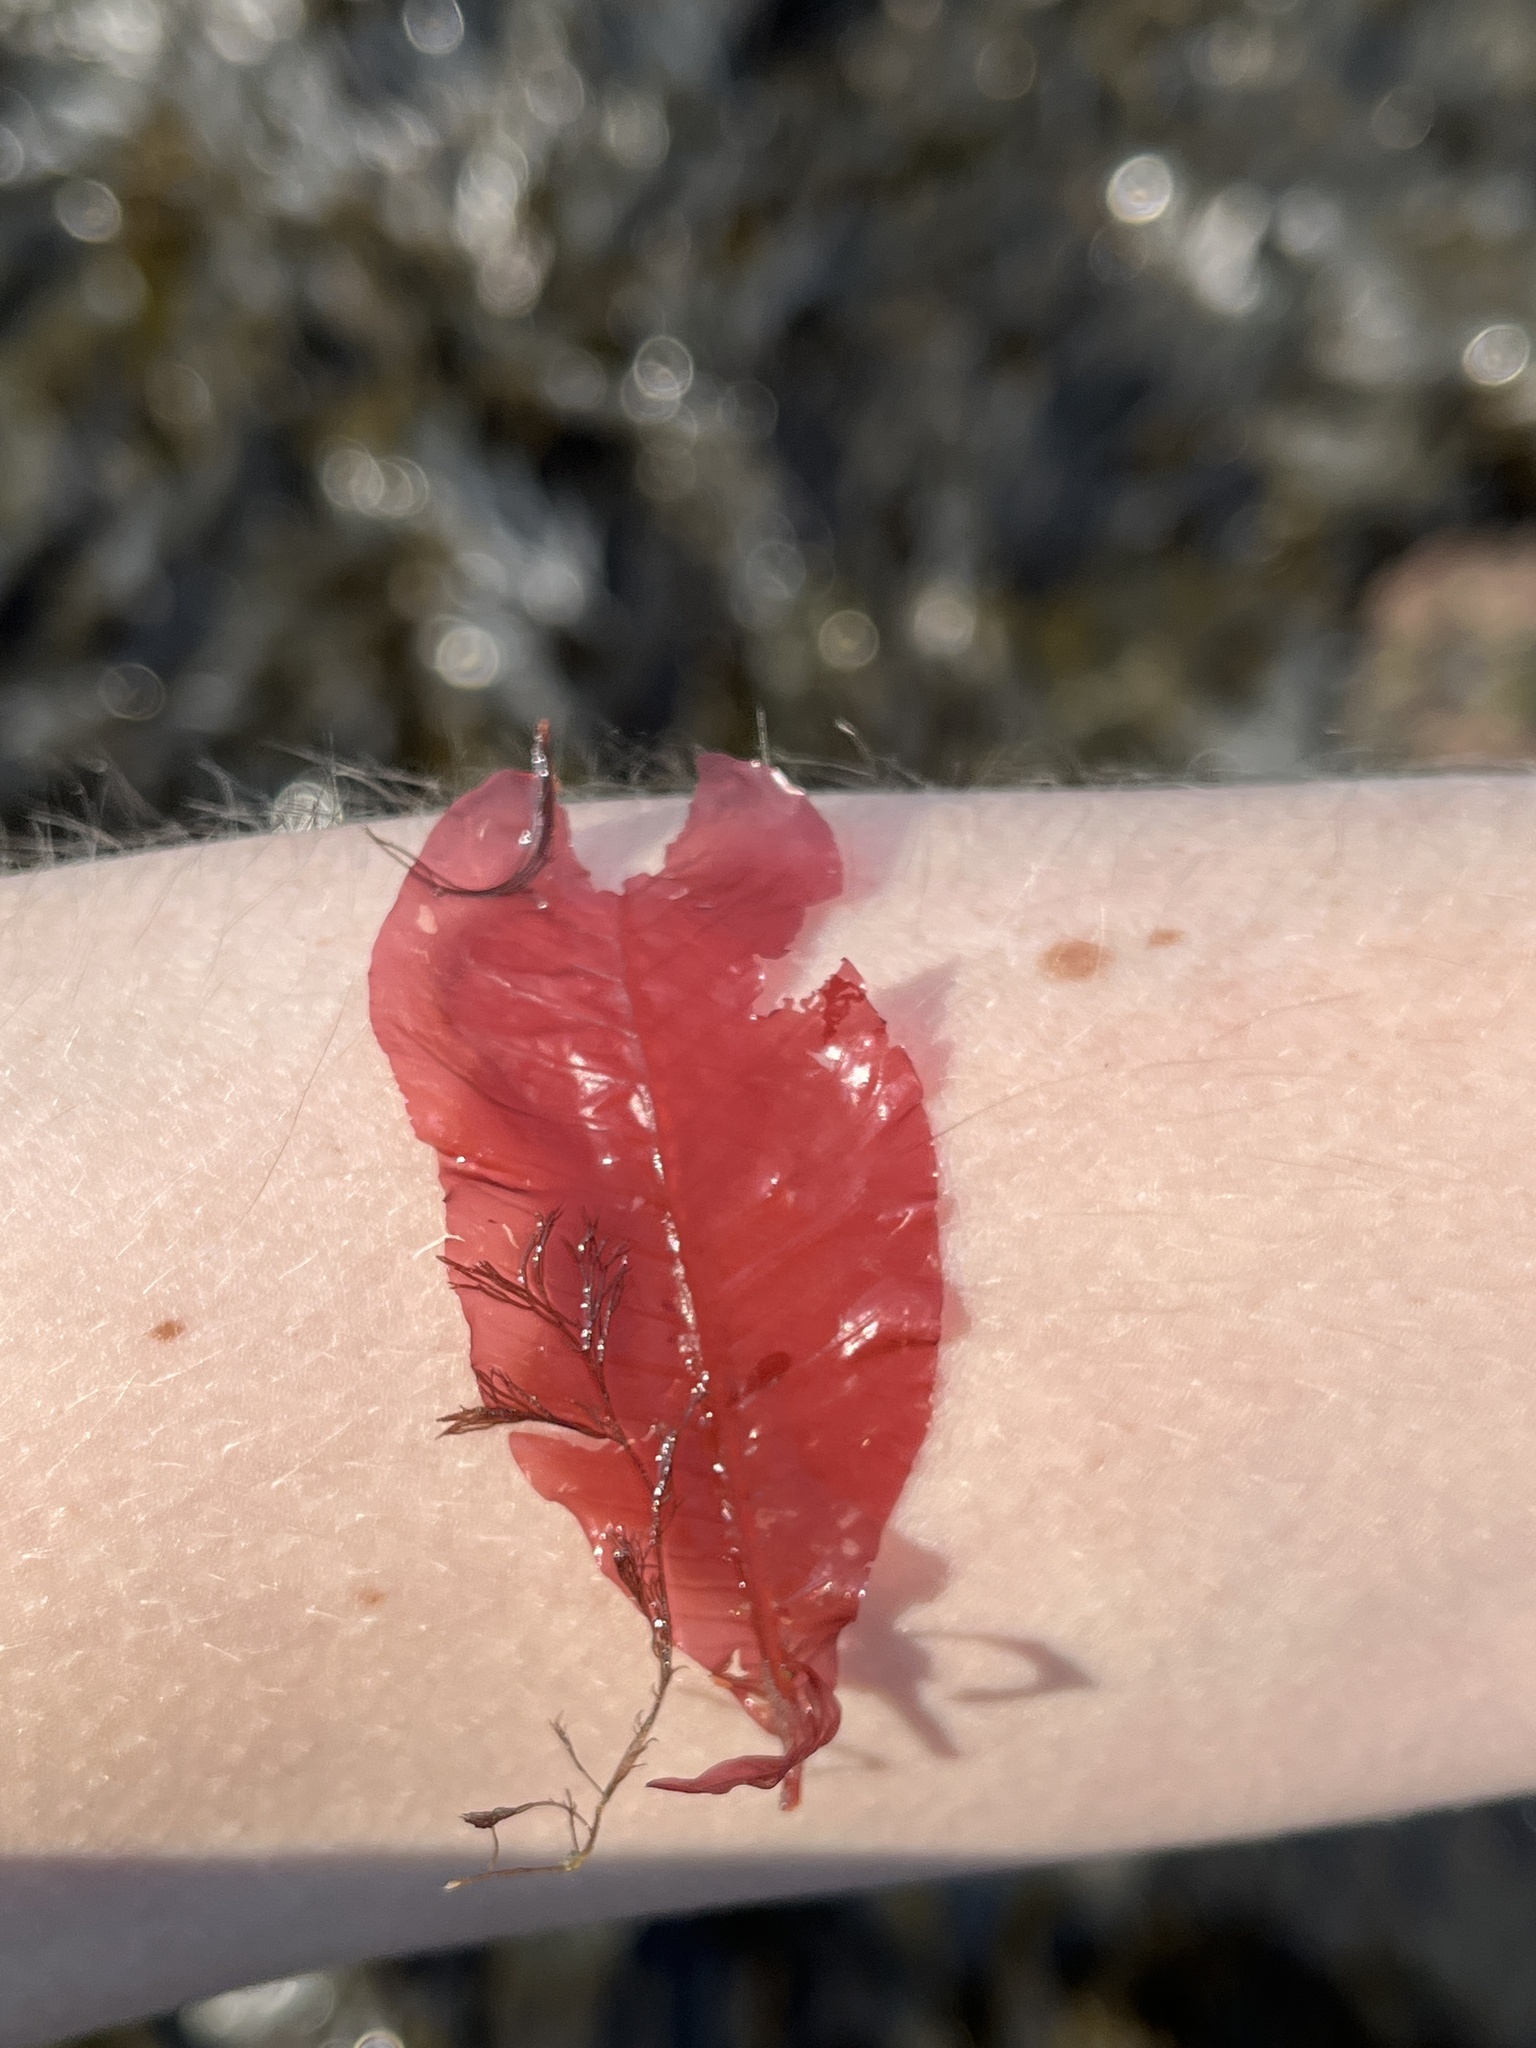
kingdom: Plantae
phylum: Rhodophyta
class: Florideophyceae
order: Ceramiales
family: Delesseriaceae
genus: Delesseria
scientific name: Delesseria sanguinea
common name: Sea beech
